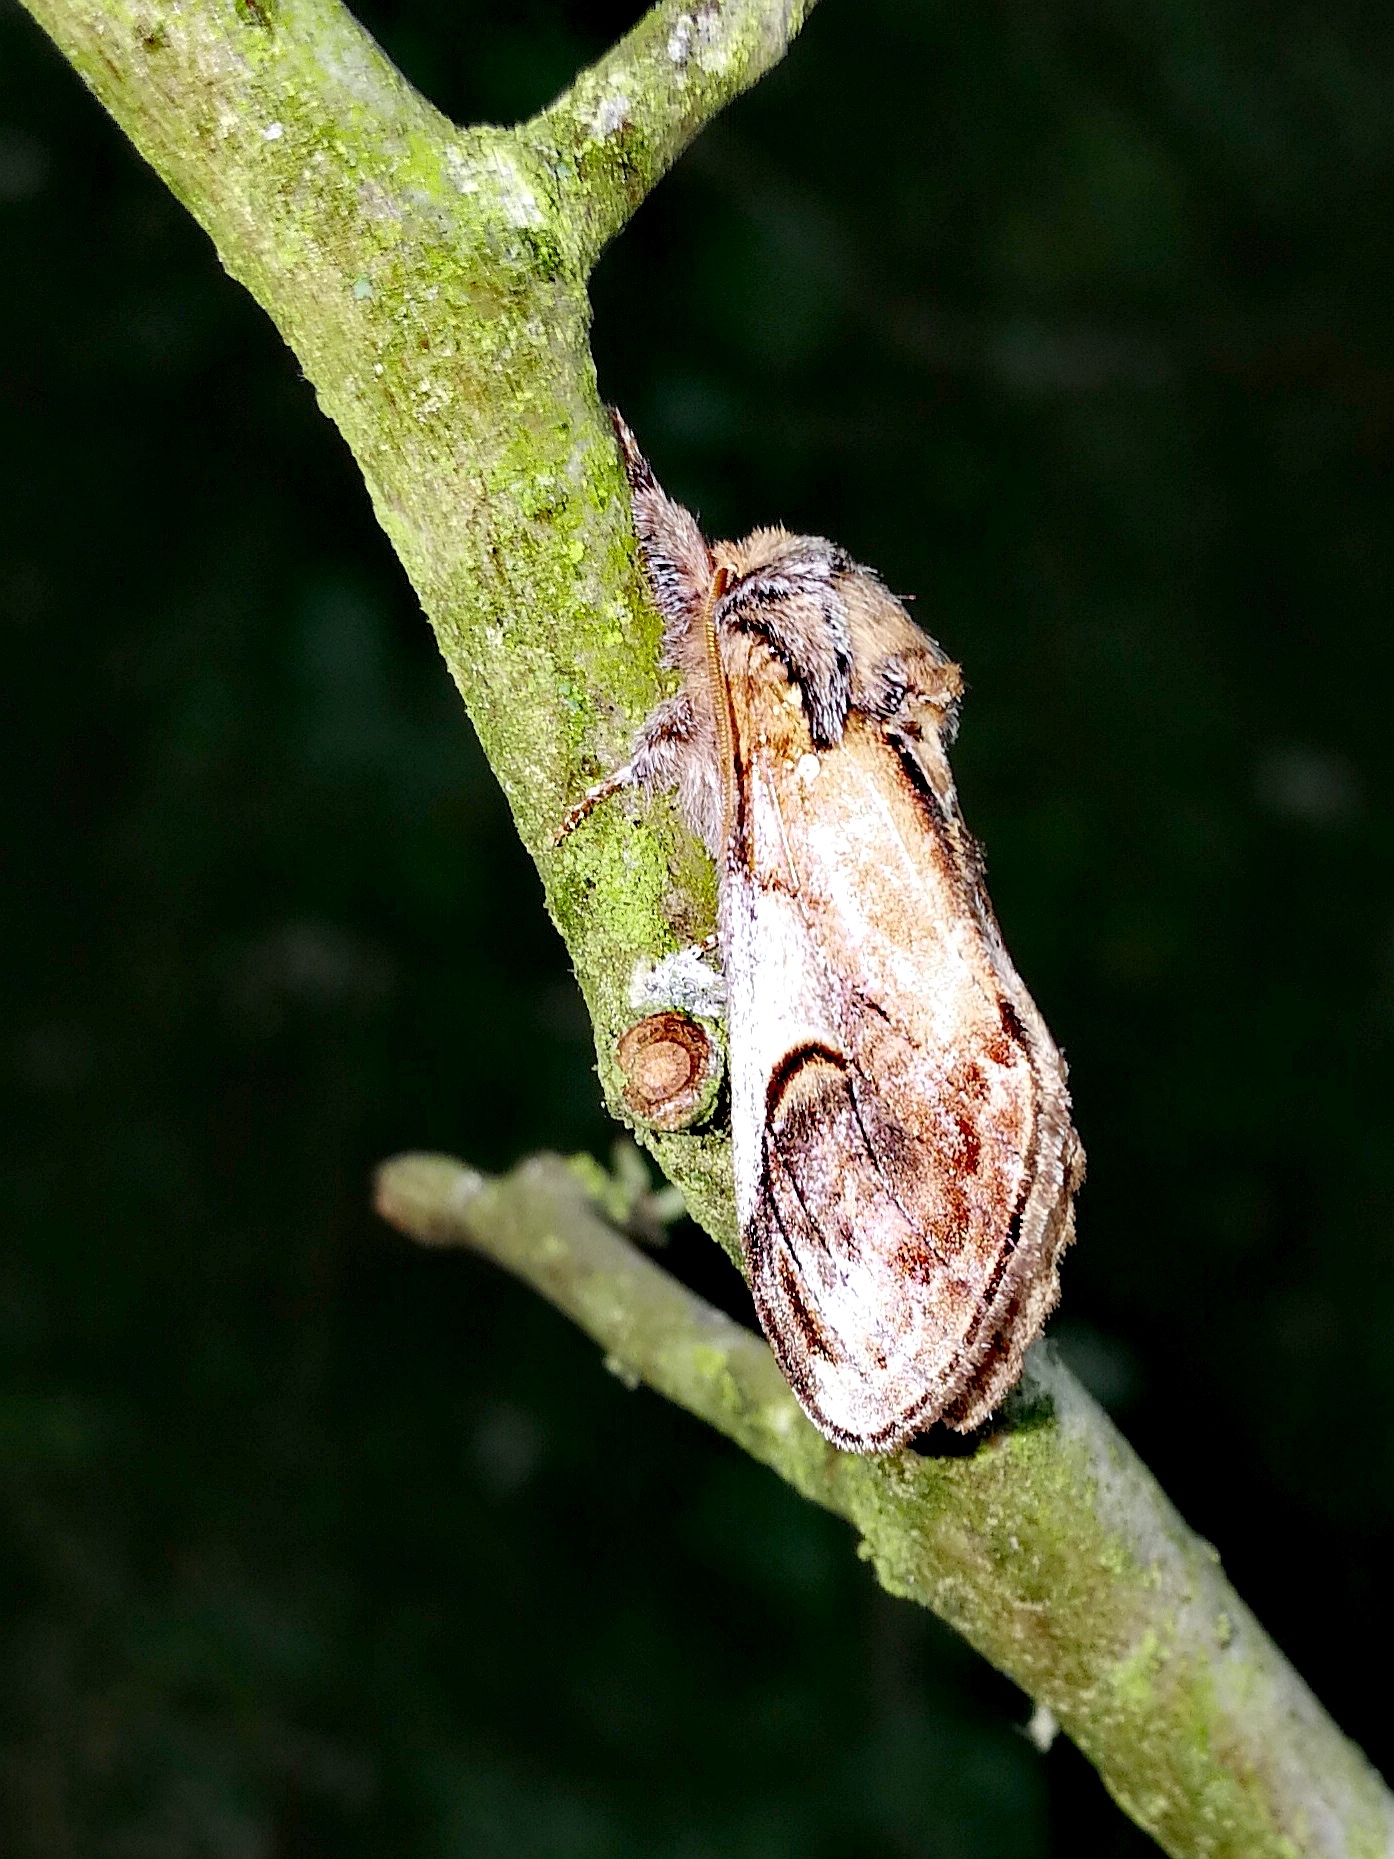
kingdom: Animalia
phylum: Arthropoda
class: Insecta
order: Lepidoptera
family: Notodontidae
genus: Notodonta
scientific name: Notodonta ziczac
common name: Pebble prominent
